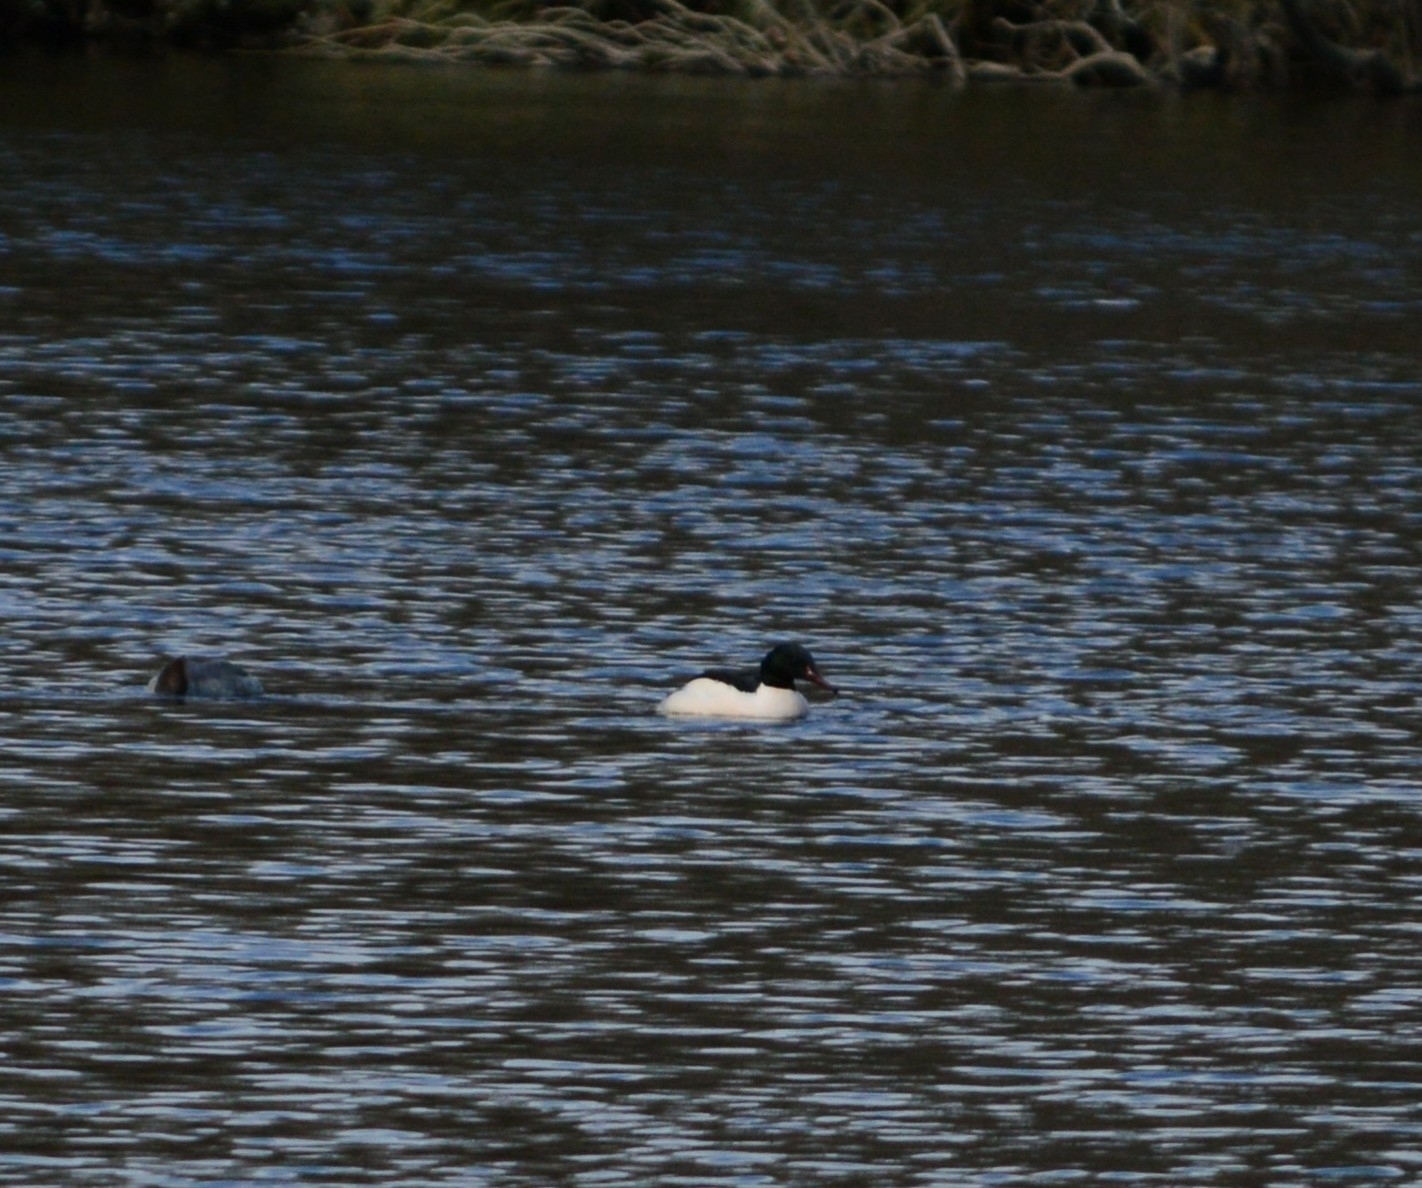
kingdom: Animalia
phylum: Chordata
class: Aves
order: Anseriformes
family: Anatidae
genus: Mergus
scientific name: Mergus merganser
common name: Common merganser
